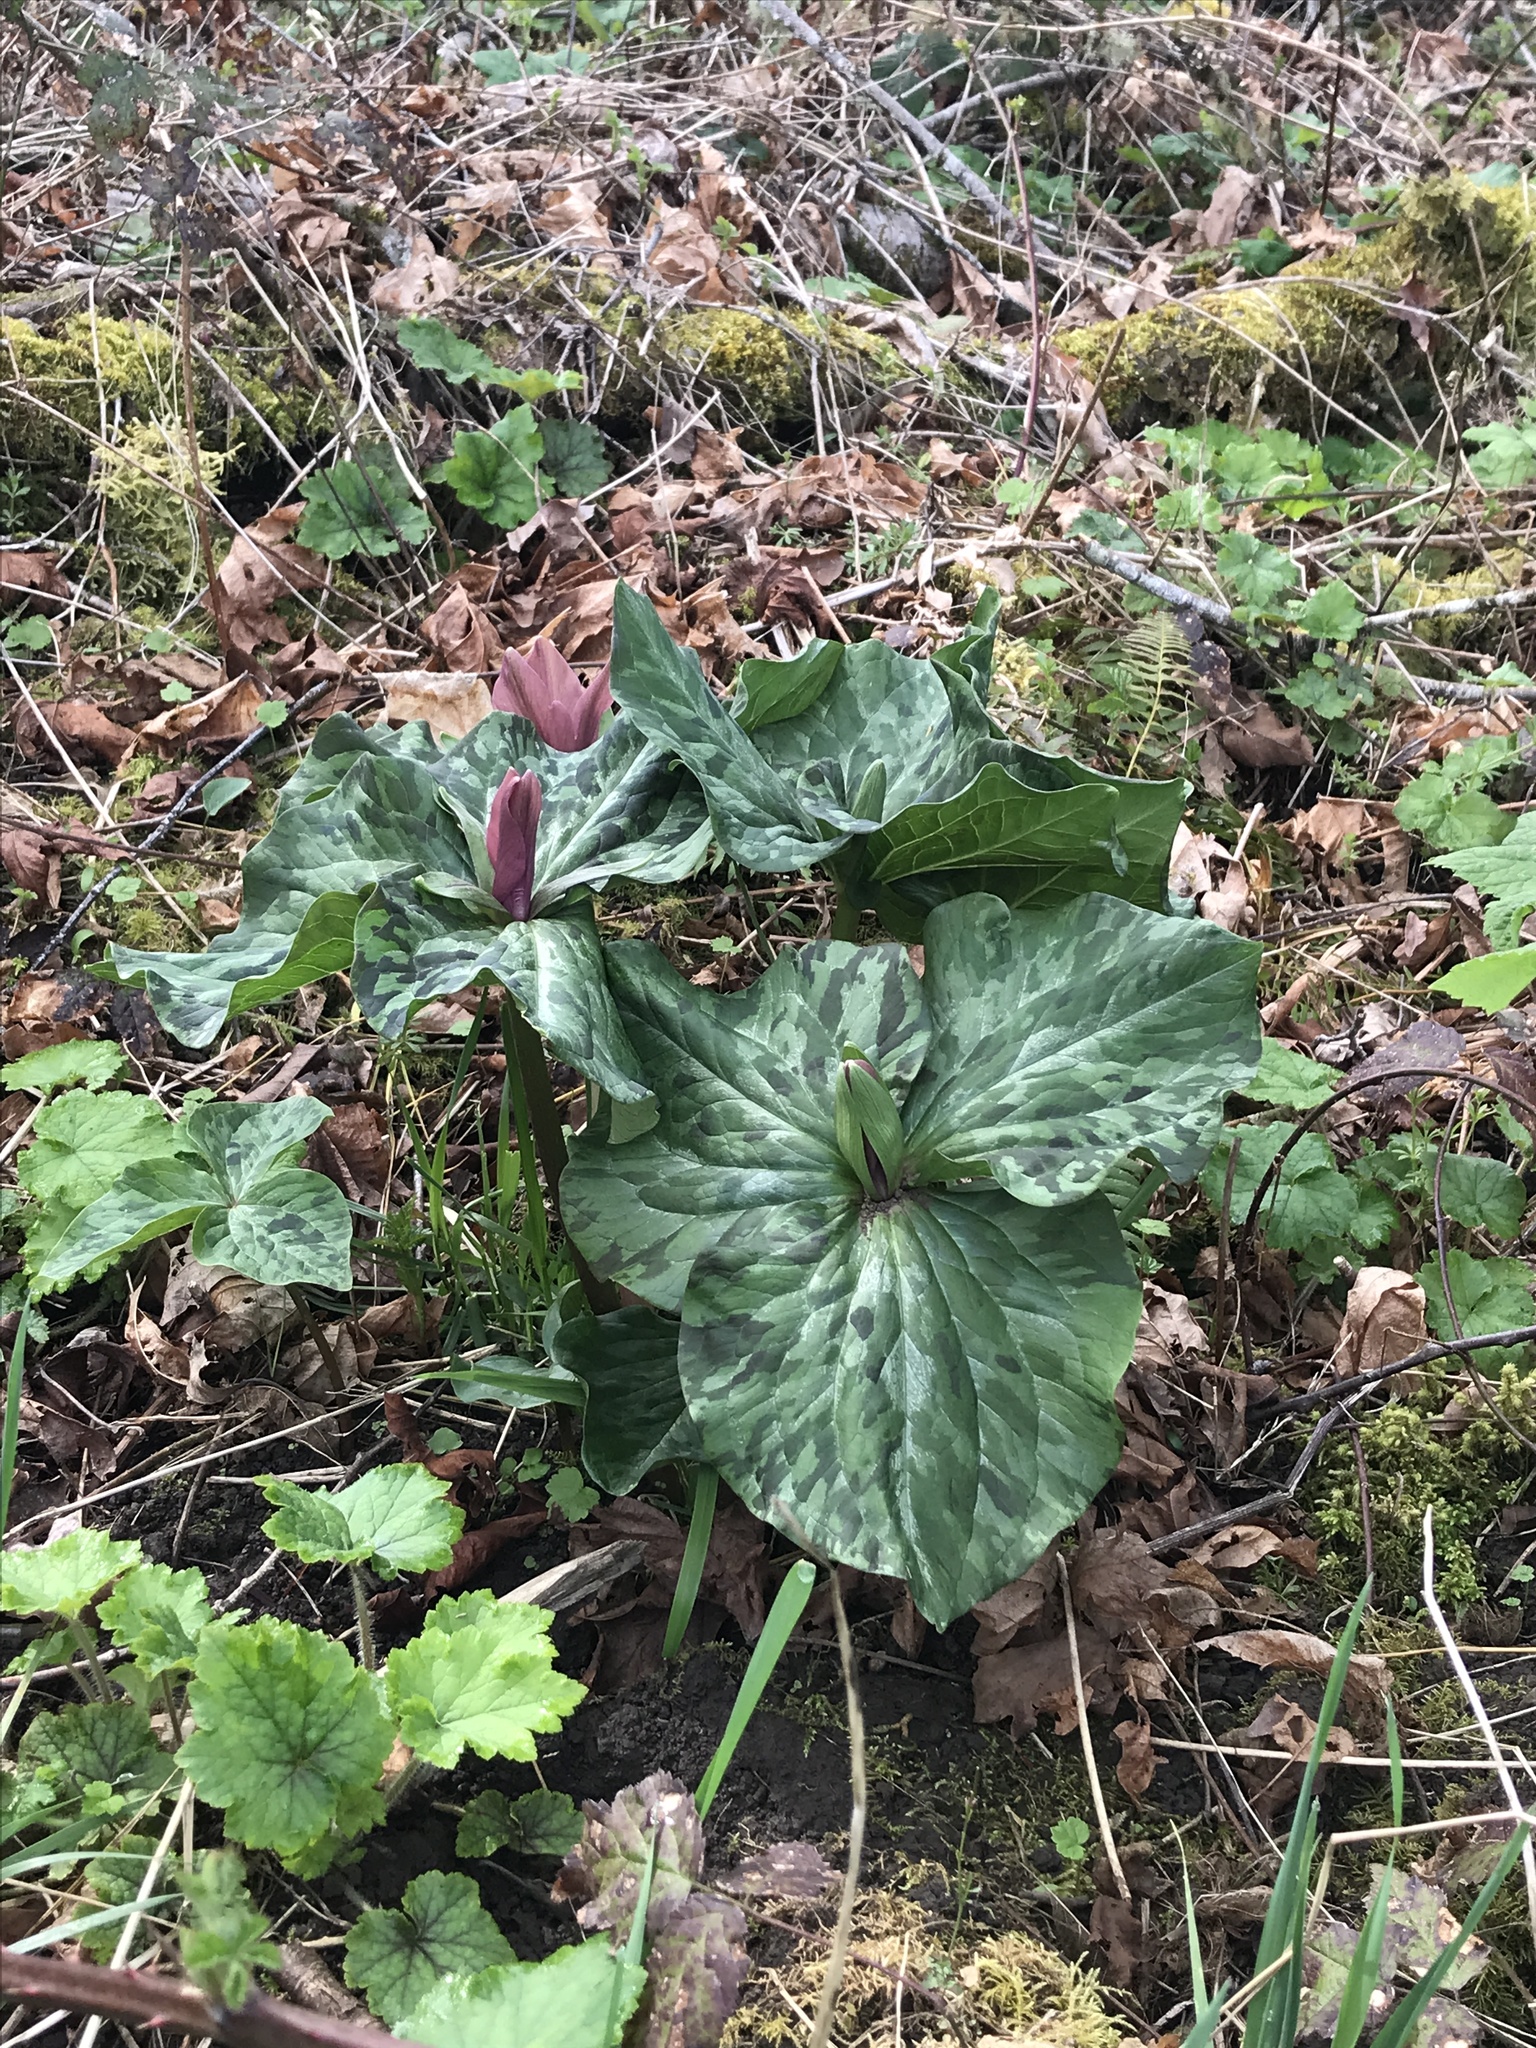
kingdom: Plantae
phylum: Tracheophyta
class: Liliopsida
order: Liliales
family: Melanthiaceae
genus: Trillium
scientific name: Trillium chloropetalum
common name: Giant trillium
